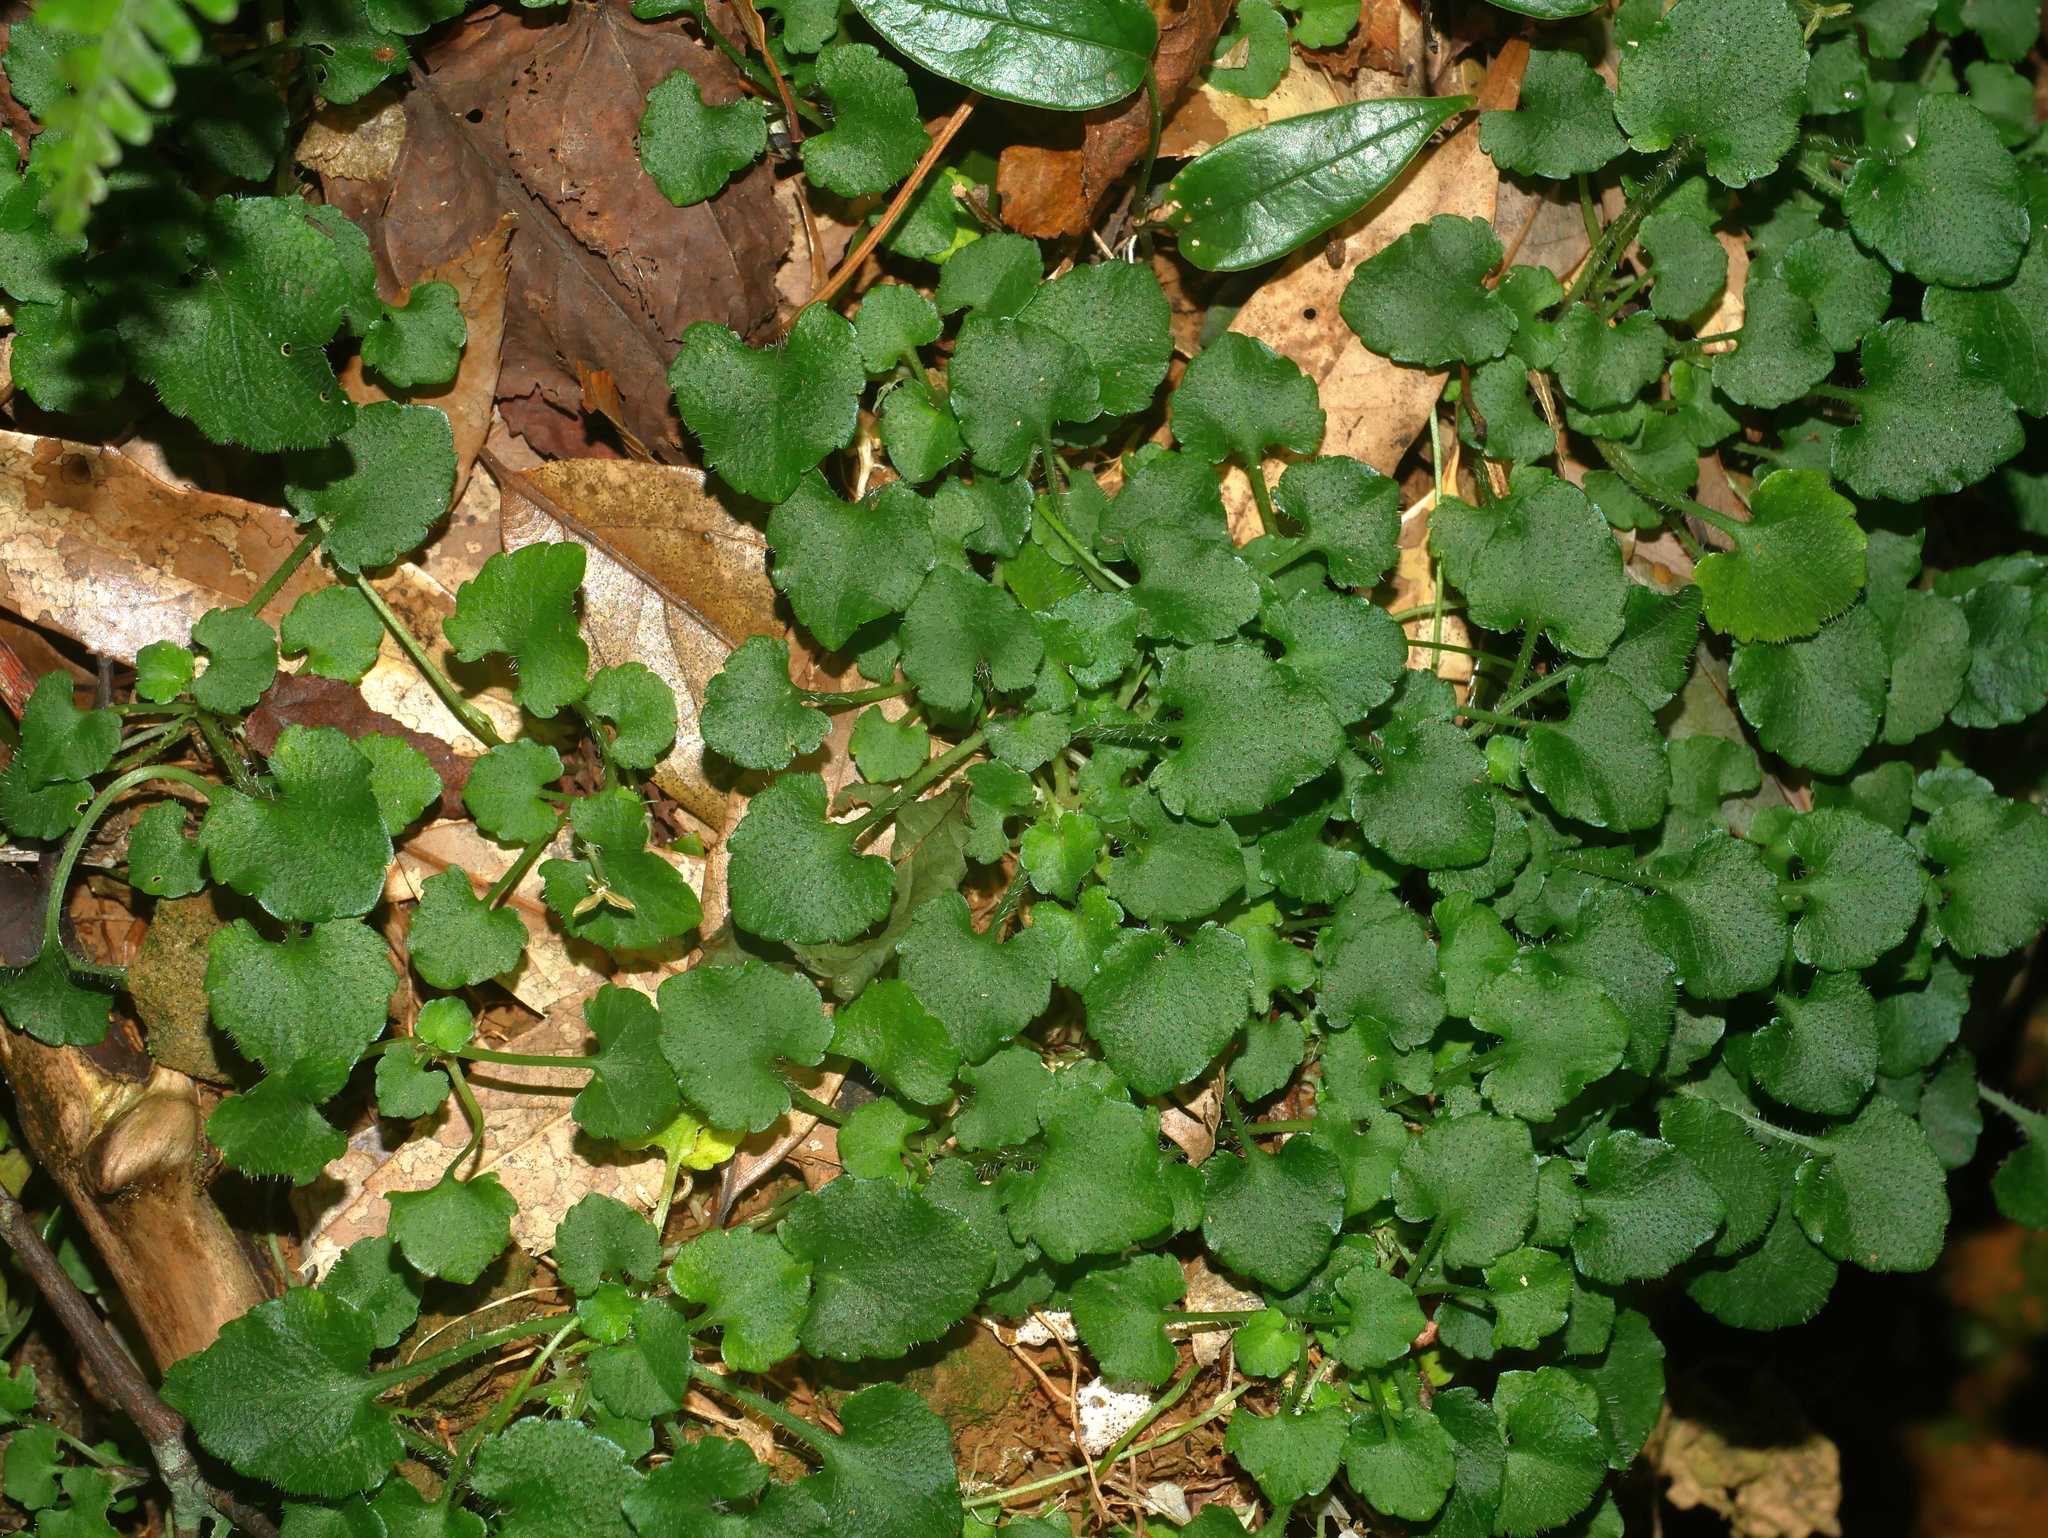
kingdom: Plantae
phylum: Tracheophyta
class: Magnoliopsida
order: Malpighiales
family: Violaceae
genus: Viola
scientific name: Viola nagasawae
